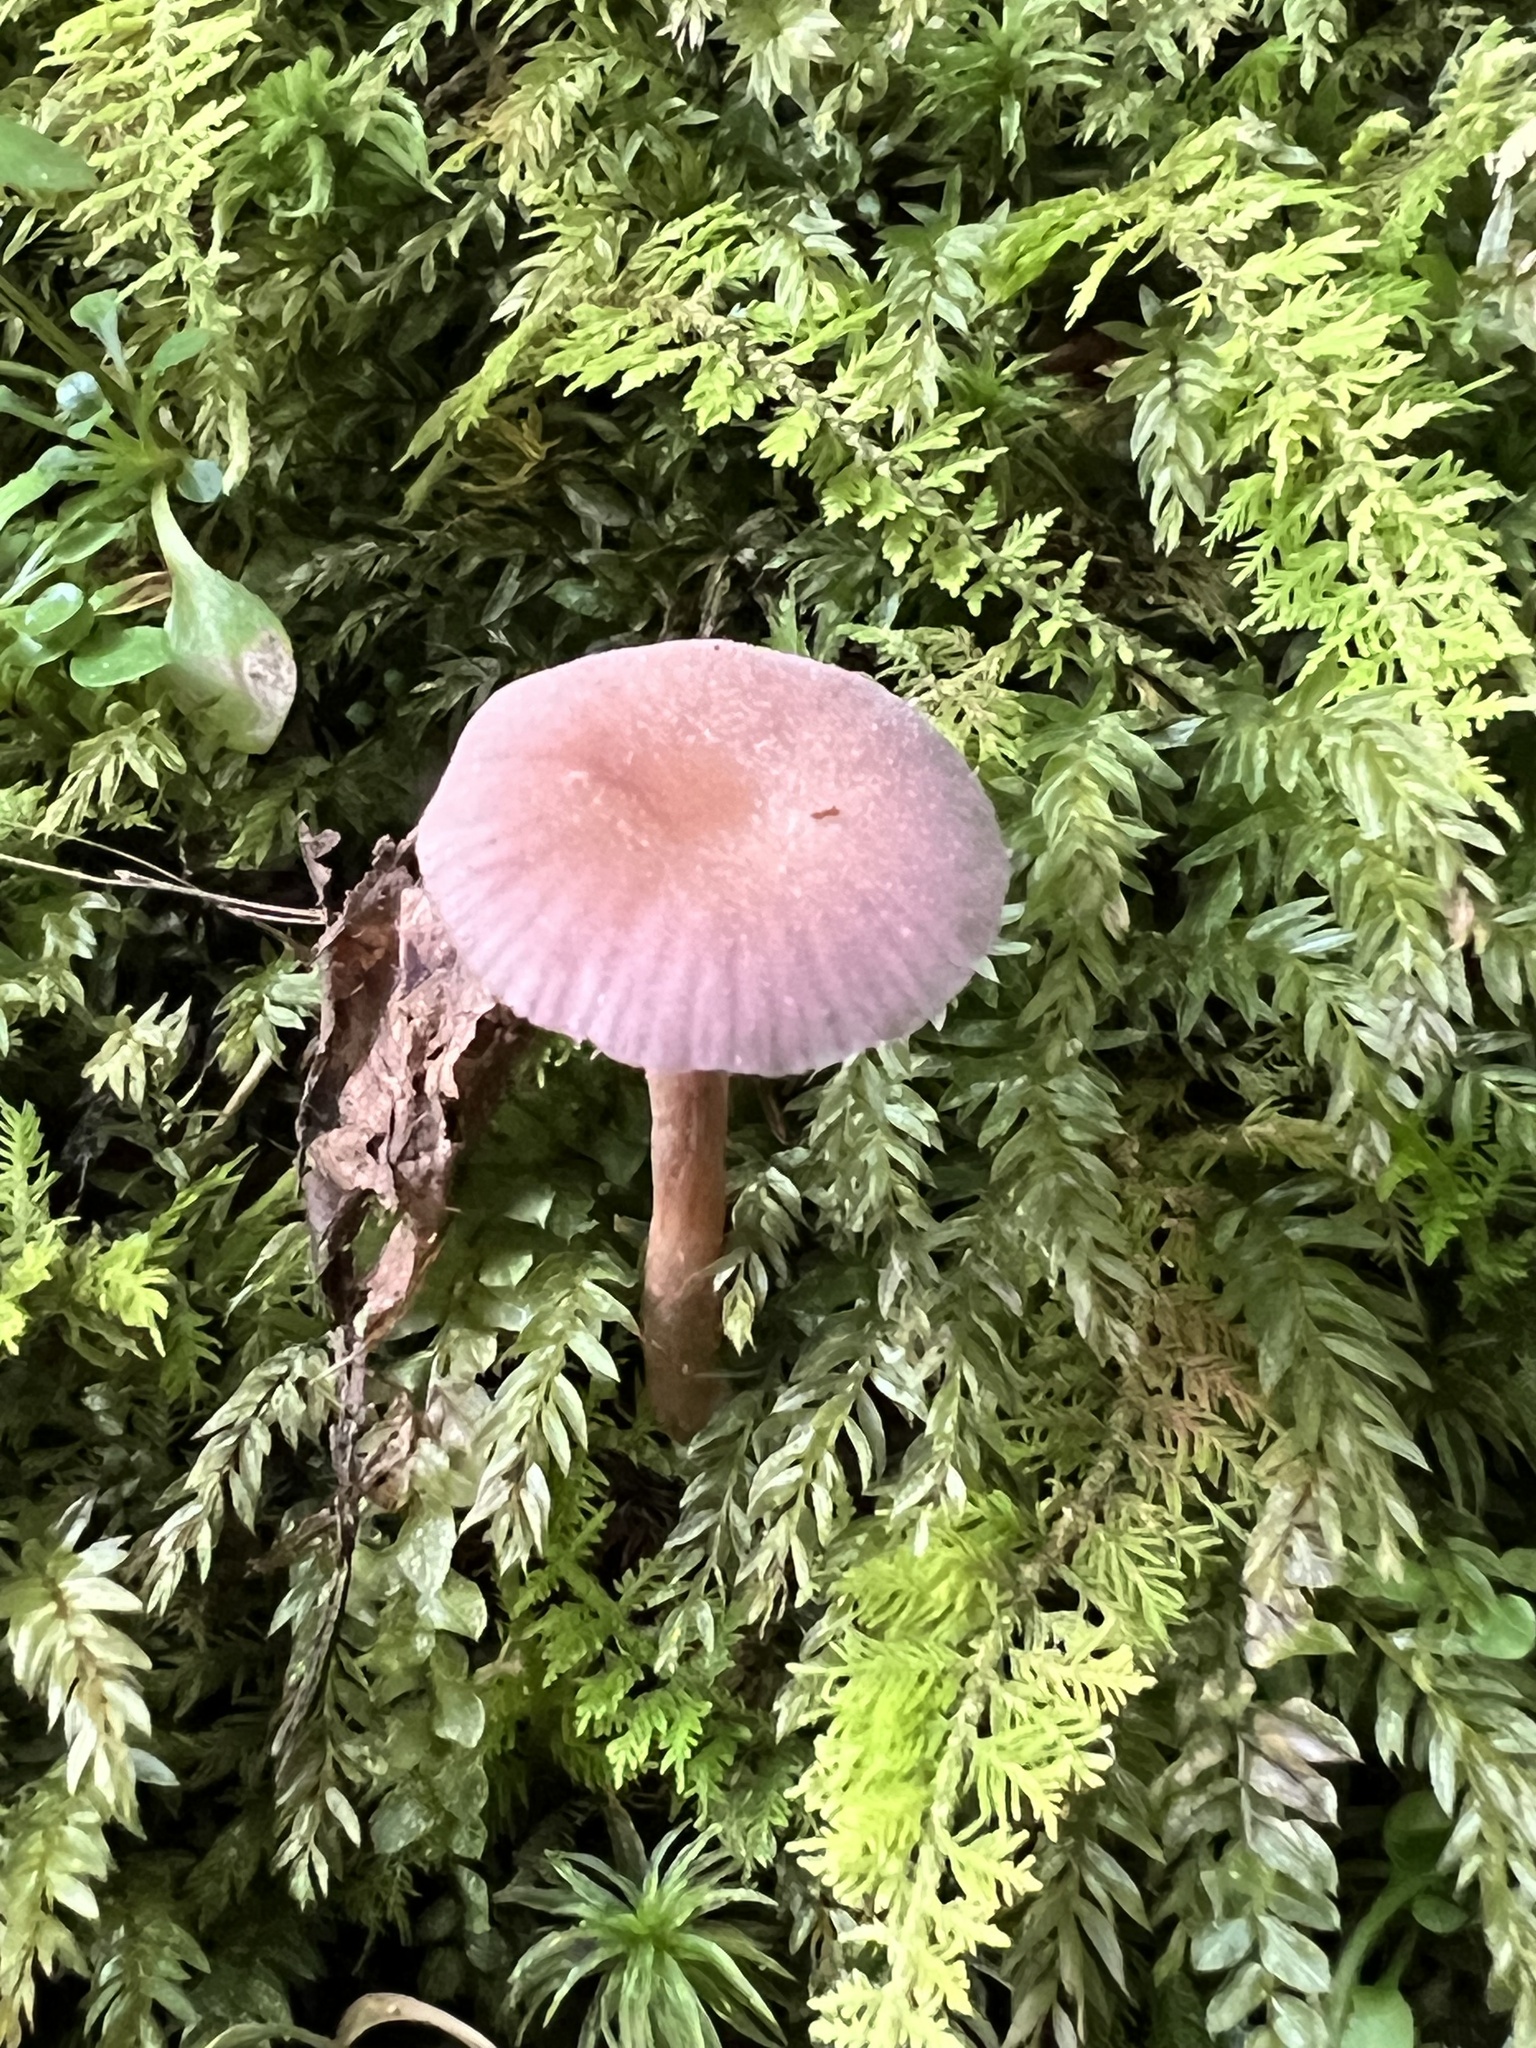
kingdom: Fungi
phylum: Basidiomycota
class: Agaricomycetes
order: Agaricales
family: Hydnangiaceae
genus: Laccaria
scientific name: Laccaria amethystina
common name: Amethyst deceiver
